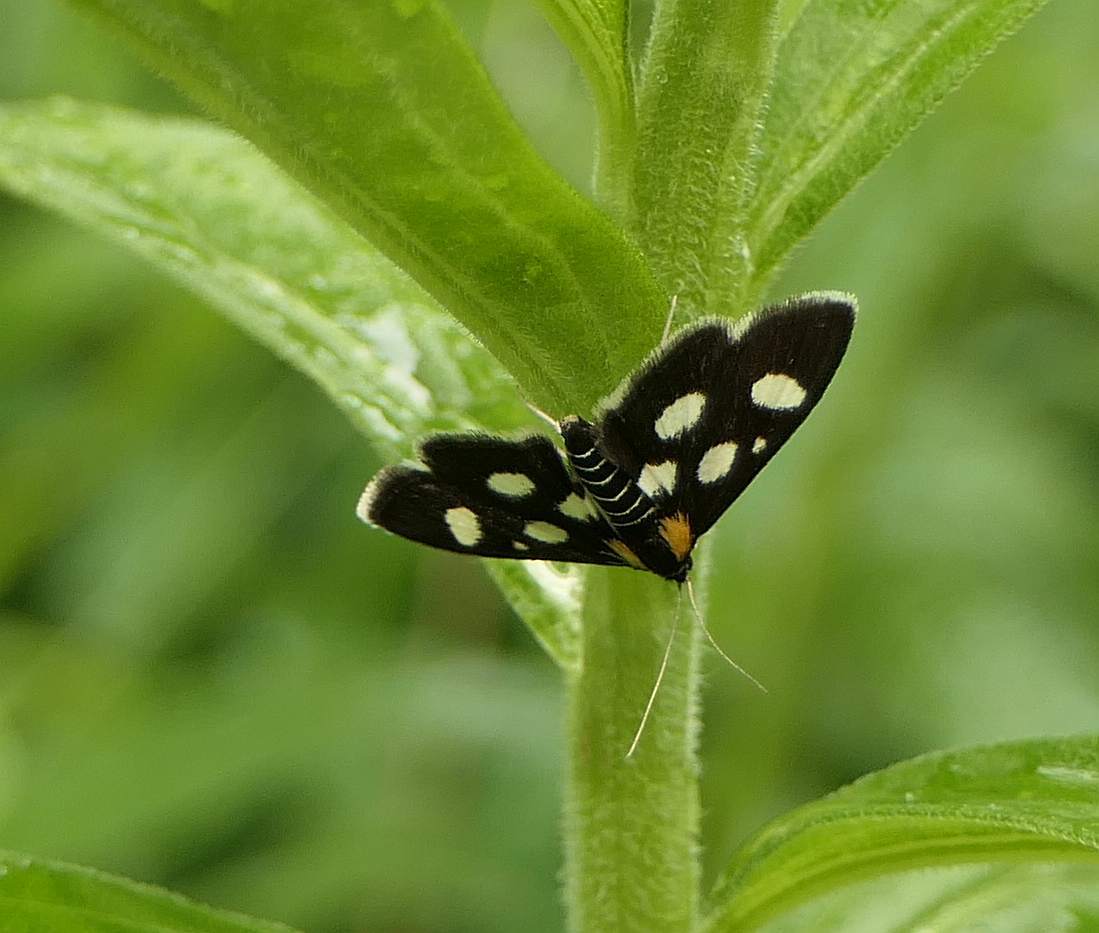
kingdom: Animalia
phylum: Arthropoda
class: Insecta
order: Lepidoptera
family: Crambidae
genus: Anania
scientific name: Anania funebris
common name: White-spotted sable moth
